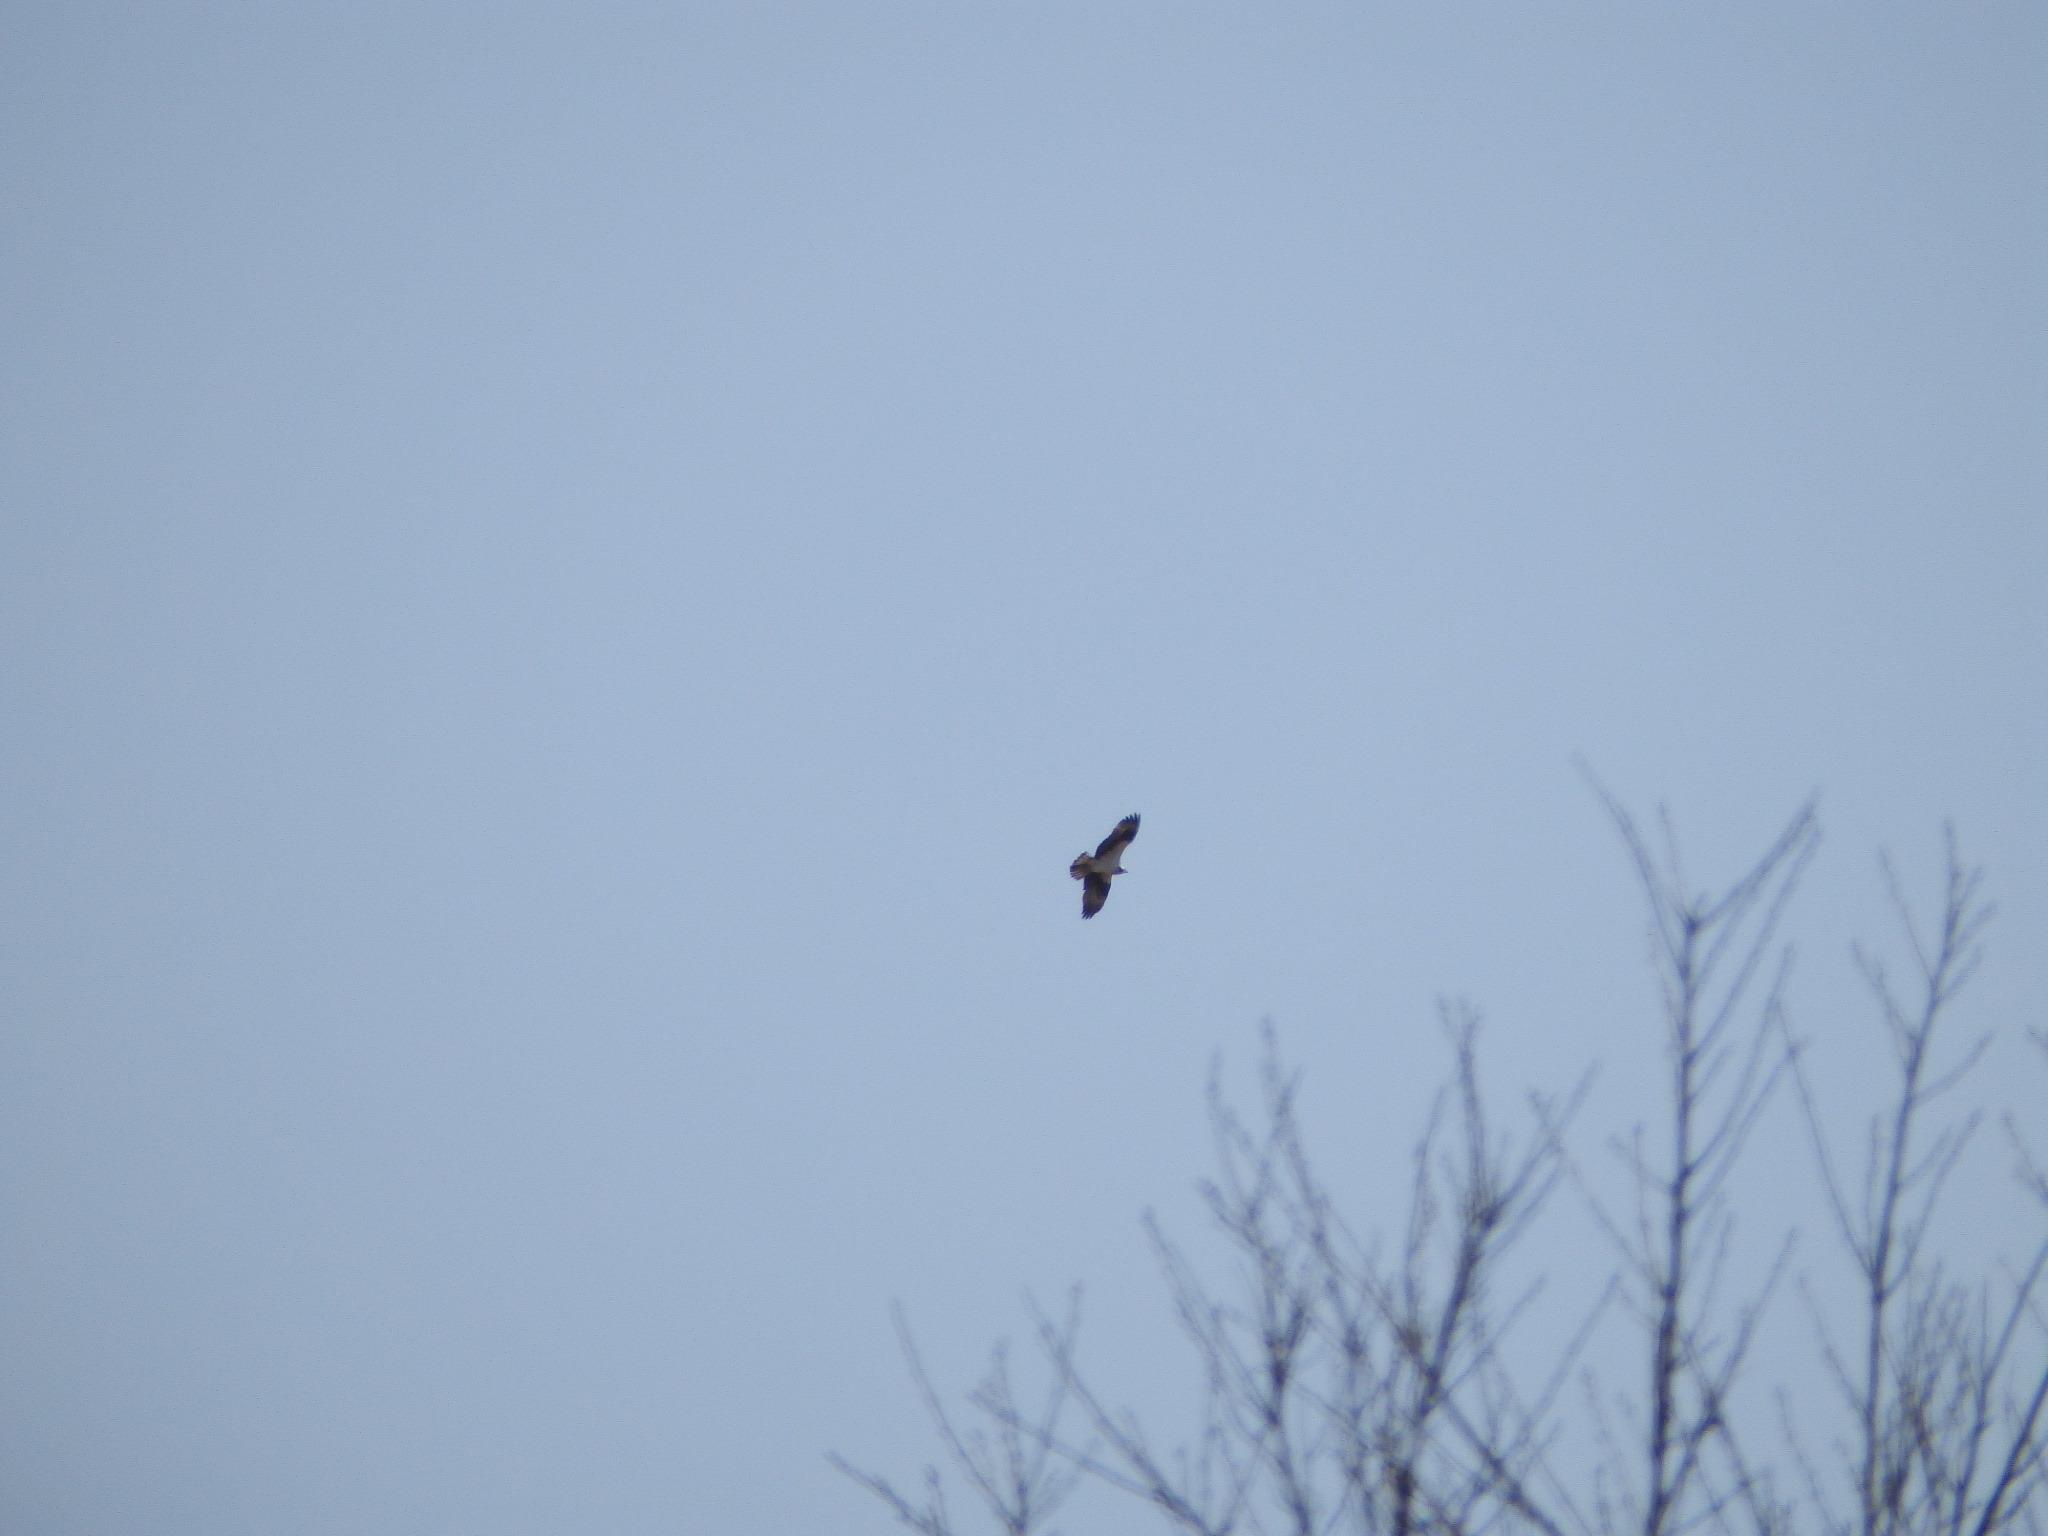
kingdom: Animalia
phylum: Chordata
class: Aves
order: Accipitriformes
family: Pandionidae
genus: Pandion
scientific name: Pandion haliaetus
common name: Osprey
